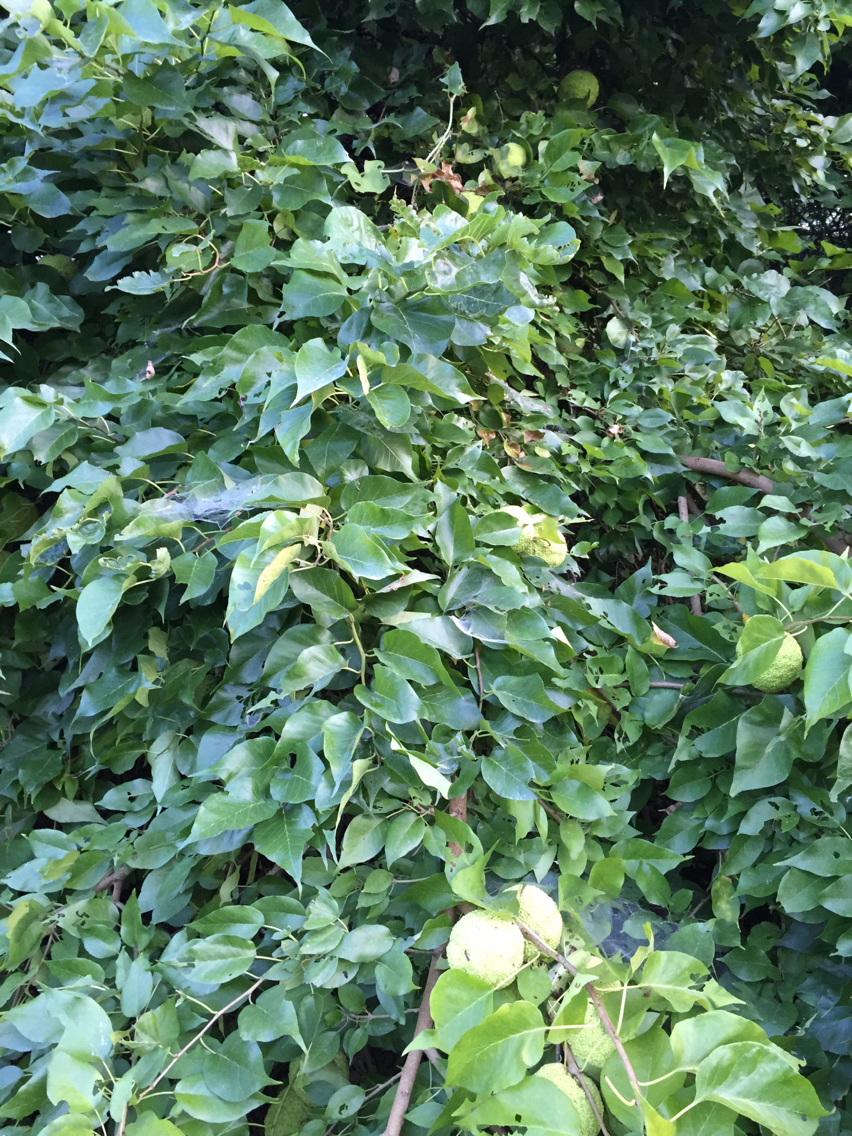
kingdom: Plantae
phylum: Tracheophyta
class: Magnoliopsida
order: Rosales
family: Moraceae
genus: Maclura
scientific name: Maclura pomifera
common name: Osage-orange
